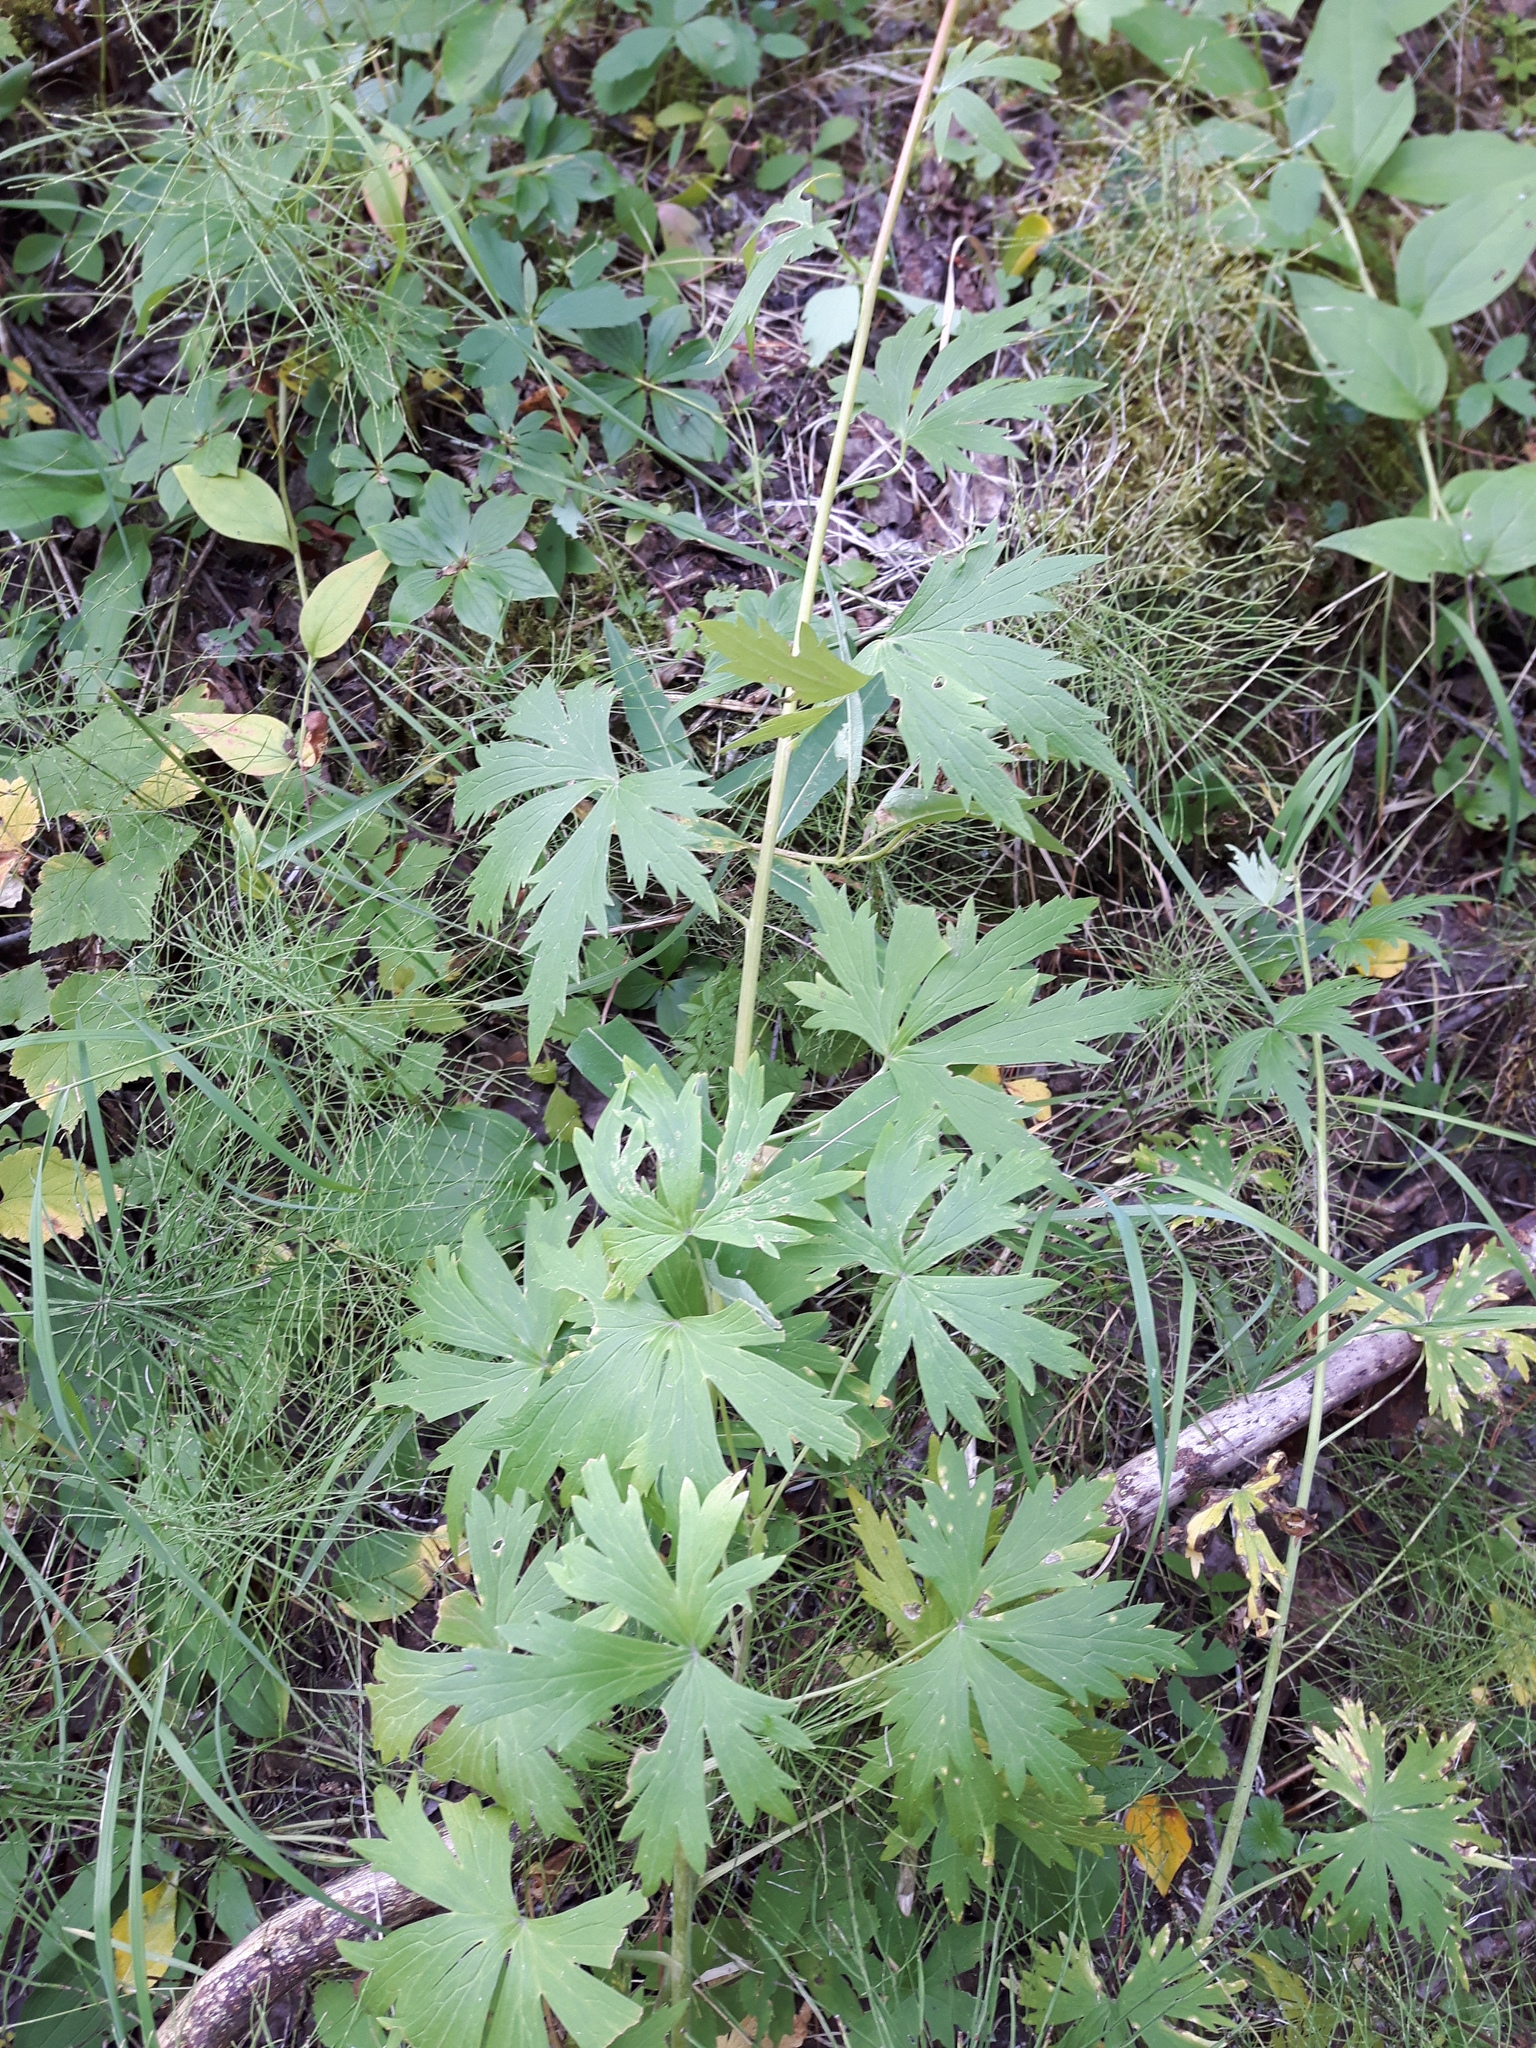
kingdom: Plantae
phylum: Tracheophyta
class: Magnoliopsida
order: Ranunculales
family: Ranunculaceae
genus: Delphinium
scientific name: Delphinium glaucum
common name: Brown's larkspur
